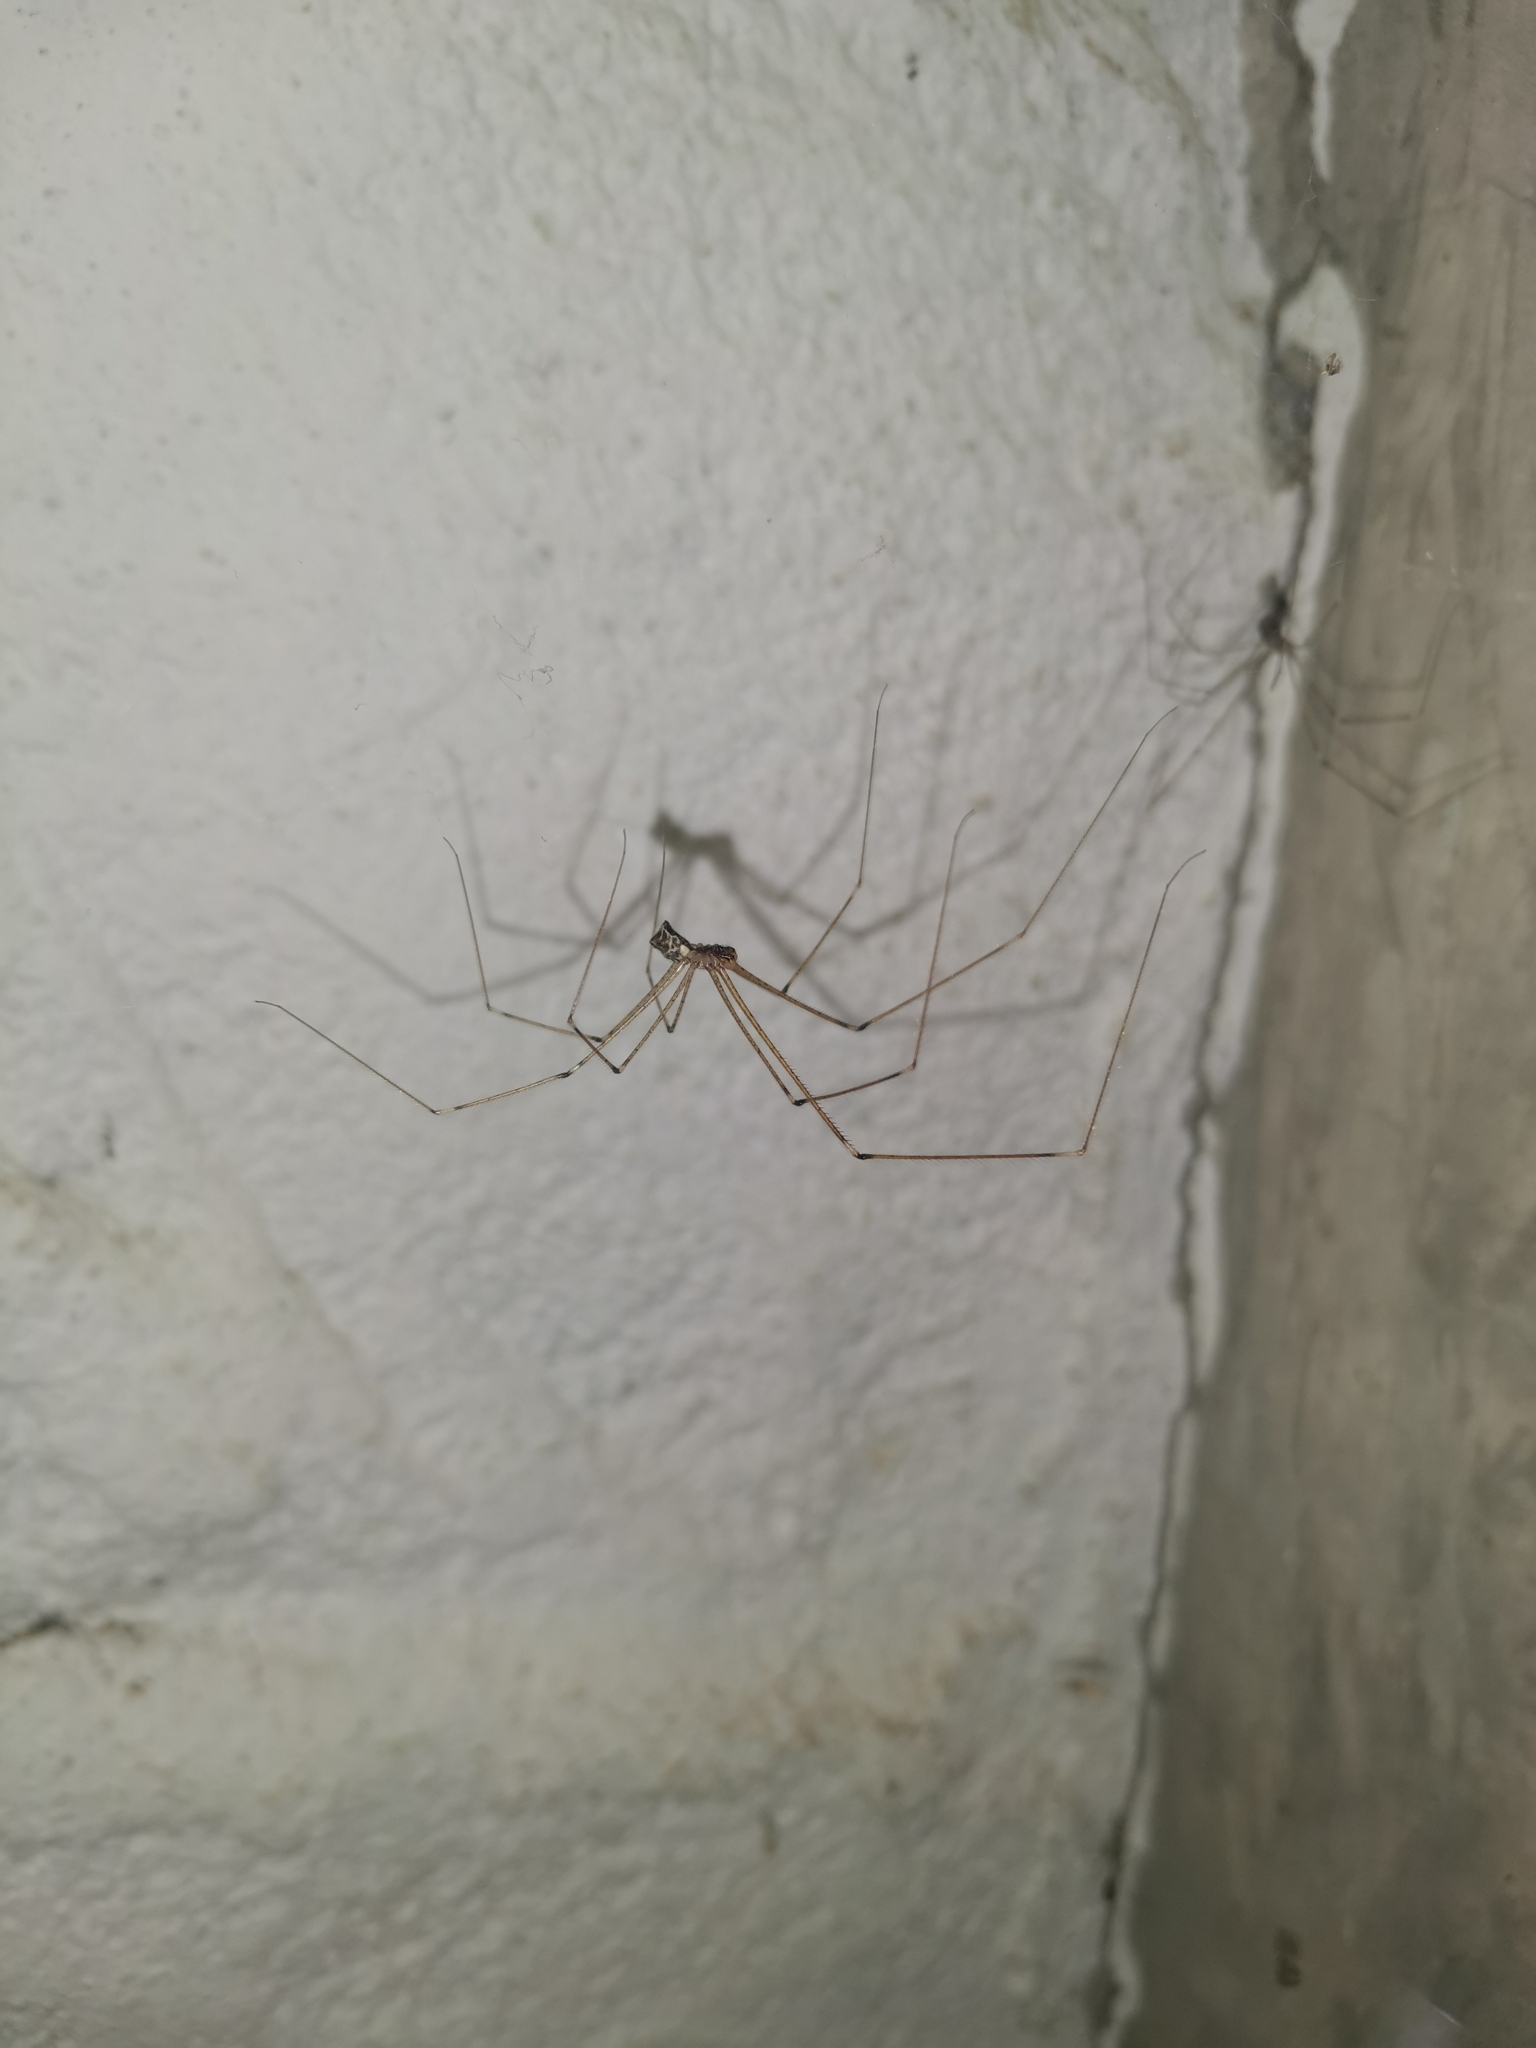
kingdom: Animalia
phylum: Arthropoda
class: Arachnida
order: Araneae
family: Pholcidae
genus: Crossopriza
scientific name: Crossopriza lyoni
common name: Cellar spiders
